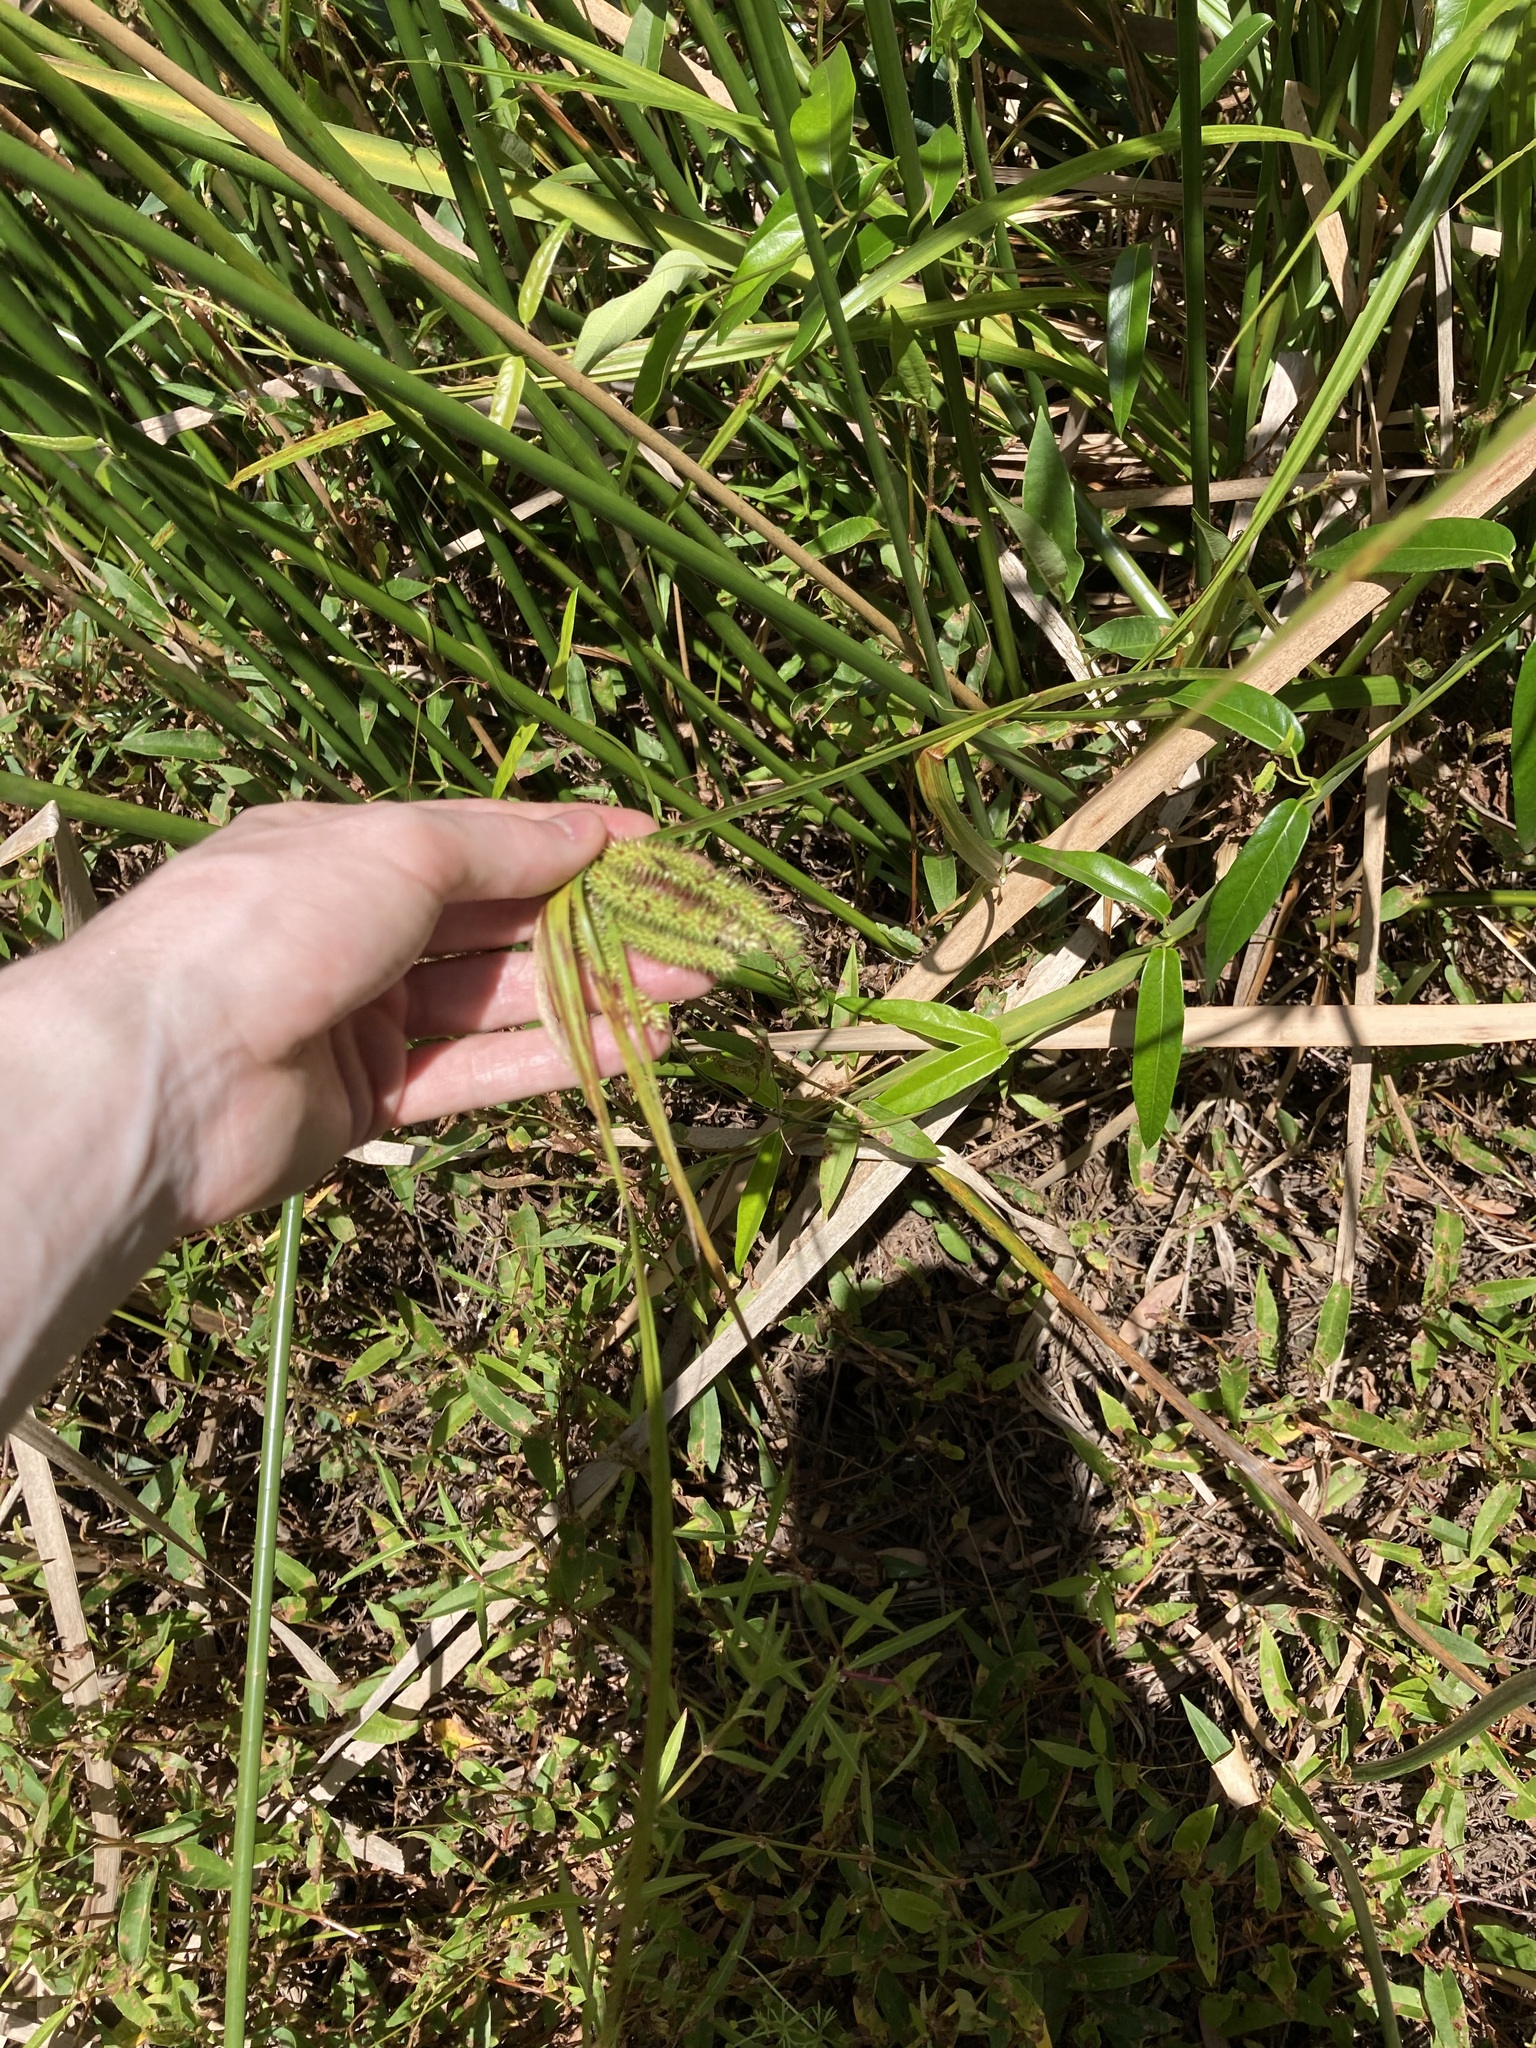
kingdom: Plantae
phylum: Tracheophyta
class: Liliopsida
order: Poales
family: Cyperaceae
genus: Carex
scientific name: Carex fascicularis
